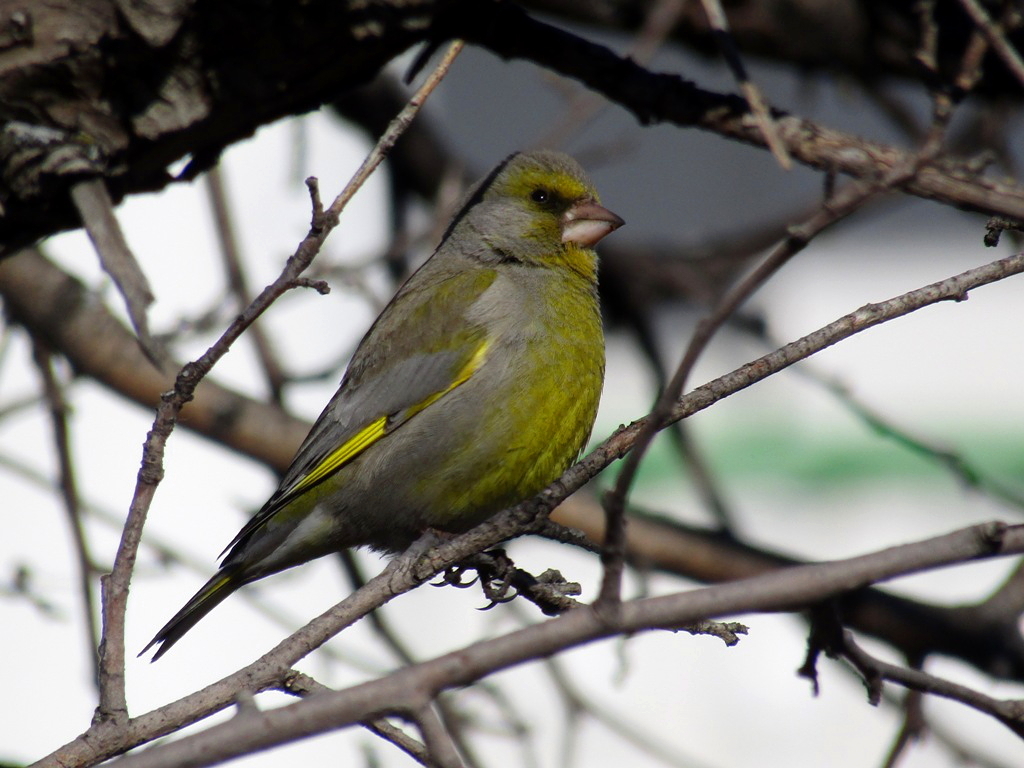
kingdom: Plantae
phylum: Tracheophyta
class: Liliopsida
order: Poales
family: Poaceae
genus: Chloris
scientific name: Chloris chloris
